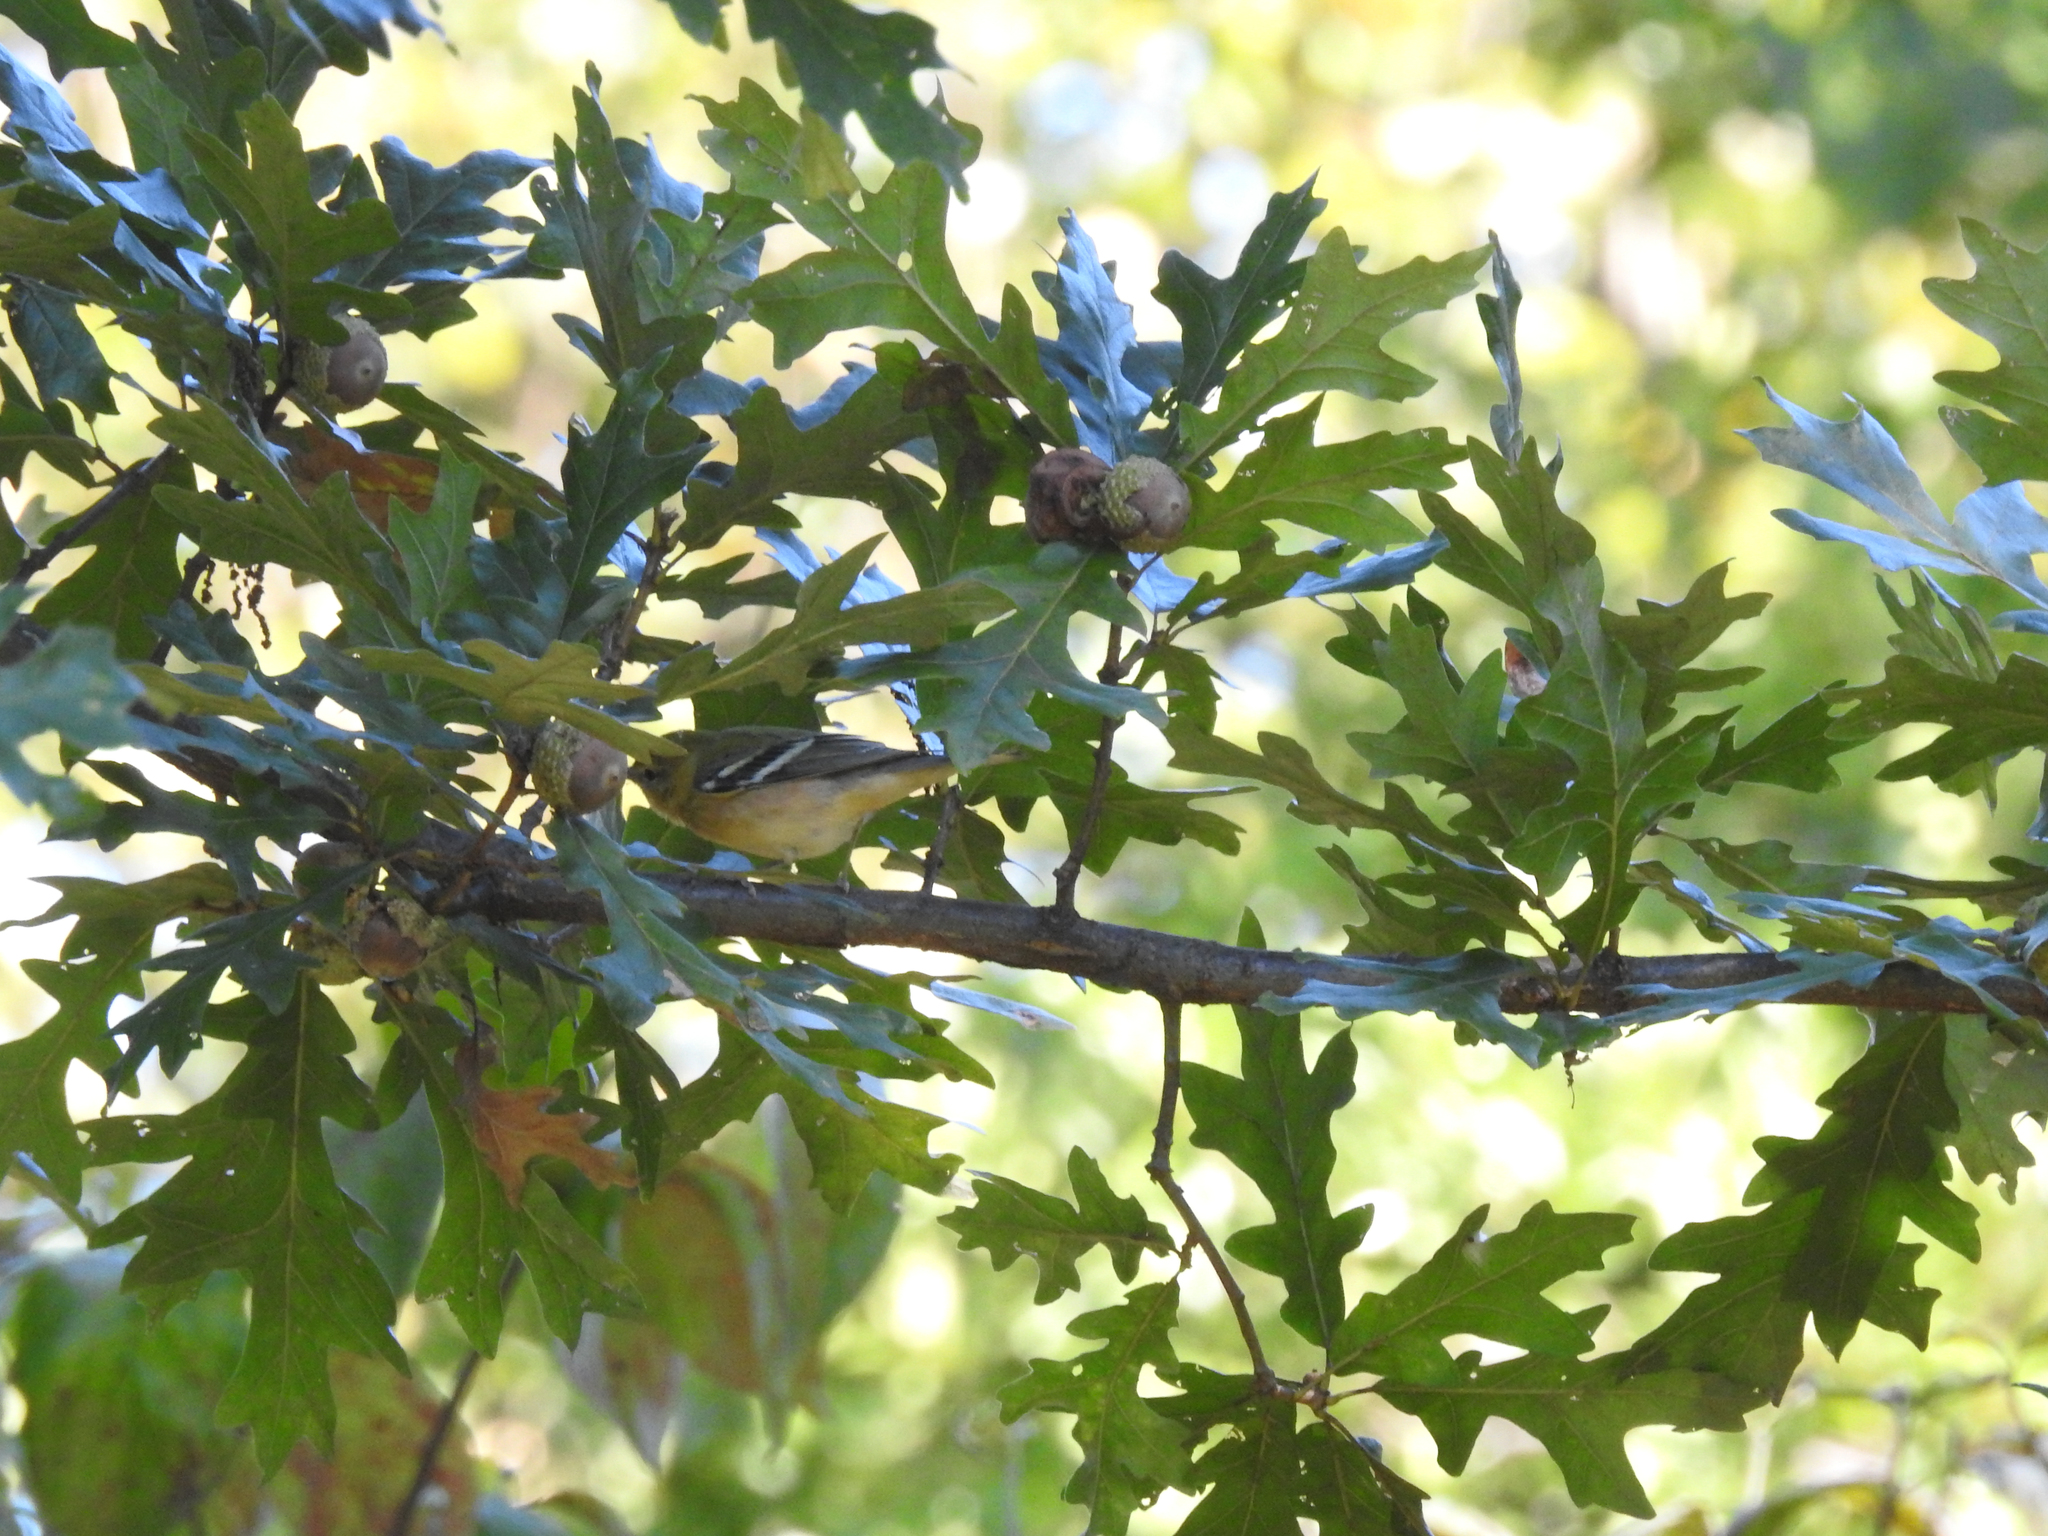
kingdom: Animalia
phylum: Chordata
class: Aves
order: Passeriformes
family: Parulidae
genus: Setophaga
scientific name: Setophaga castanea
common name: Bay-breasted warbler
